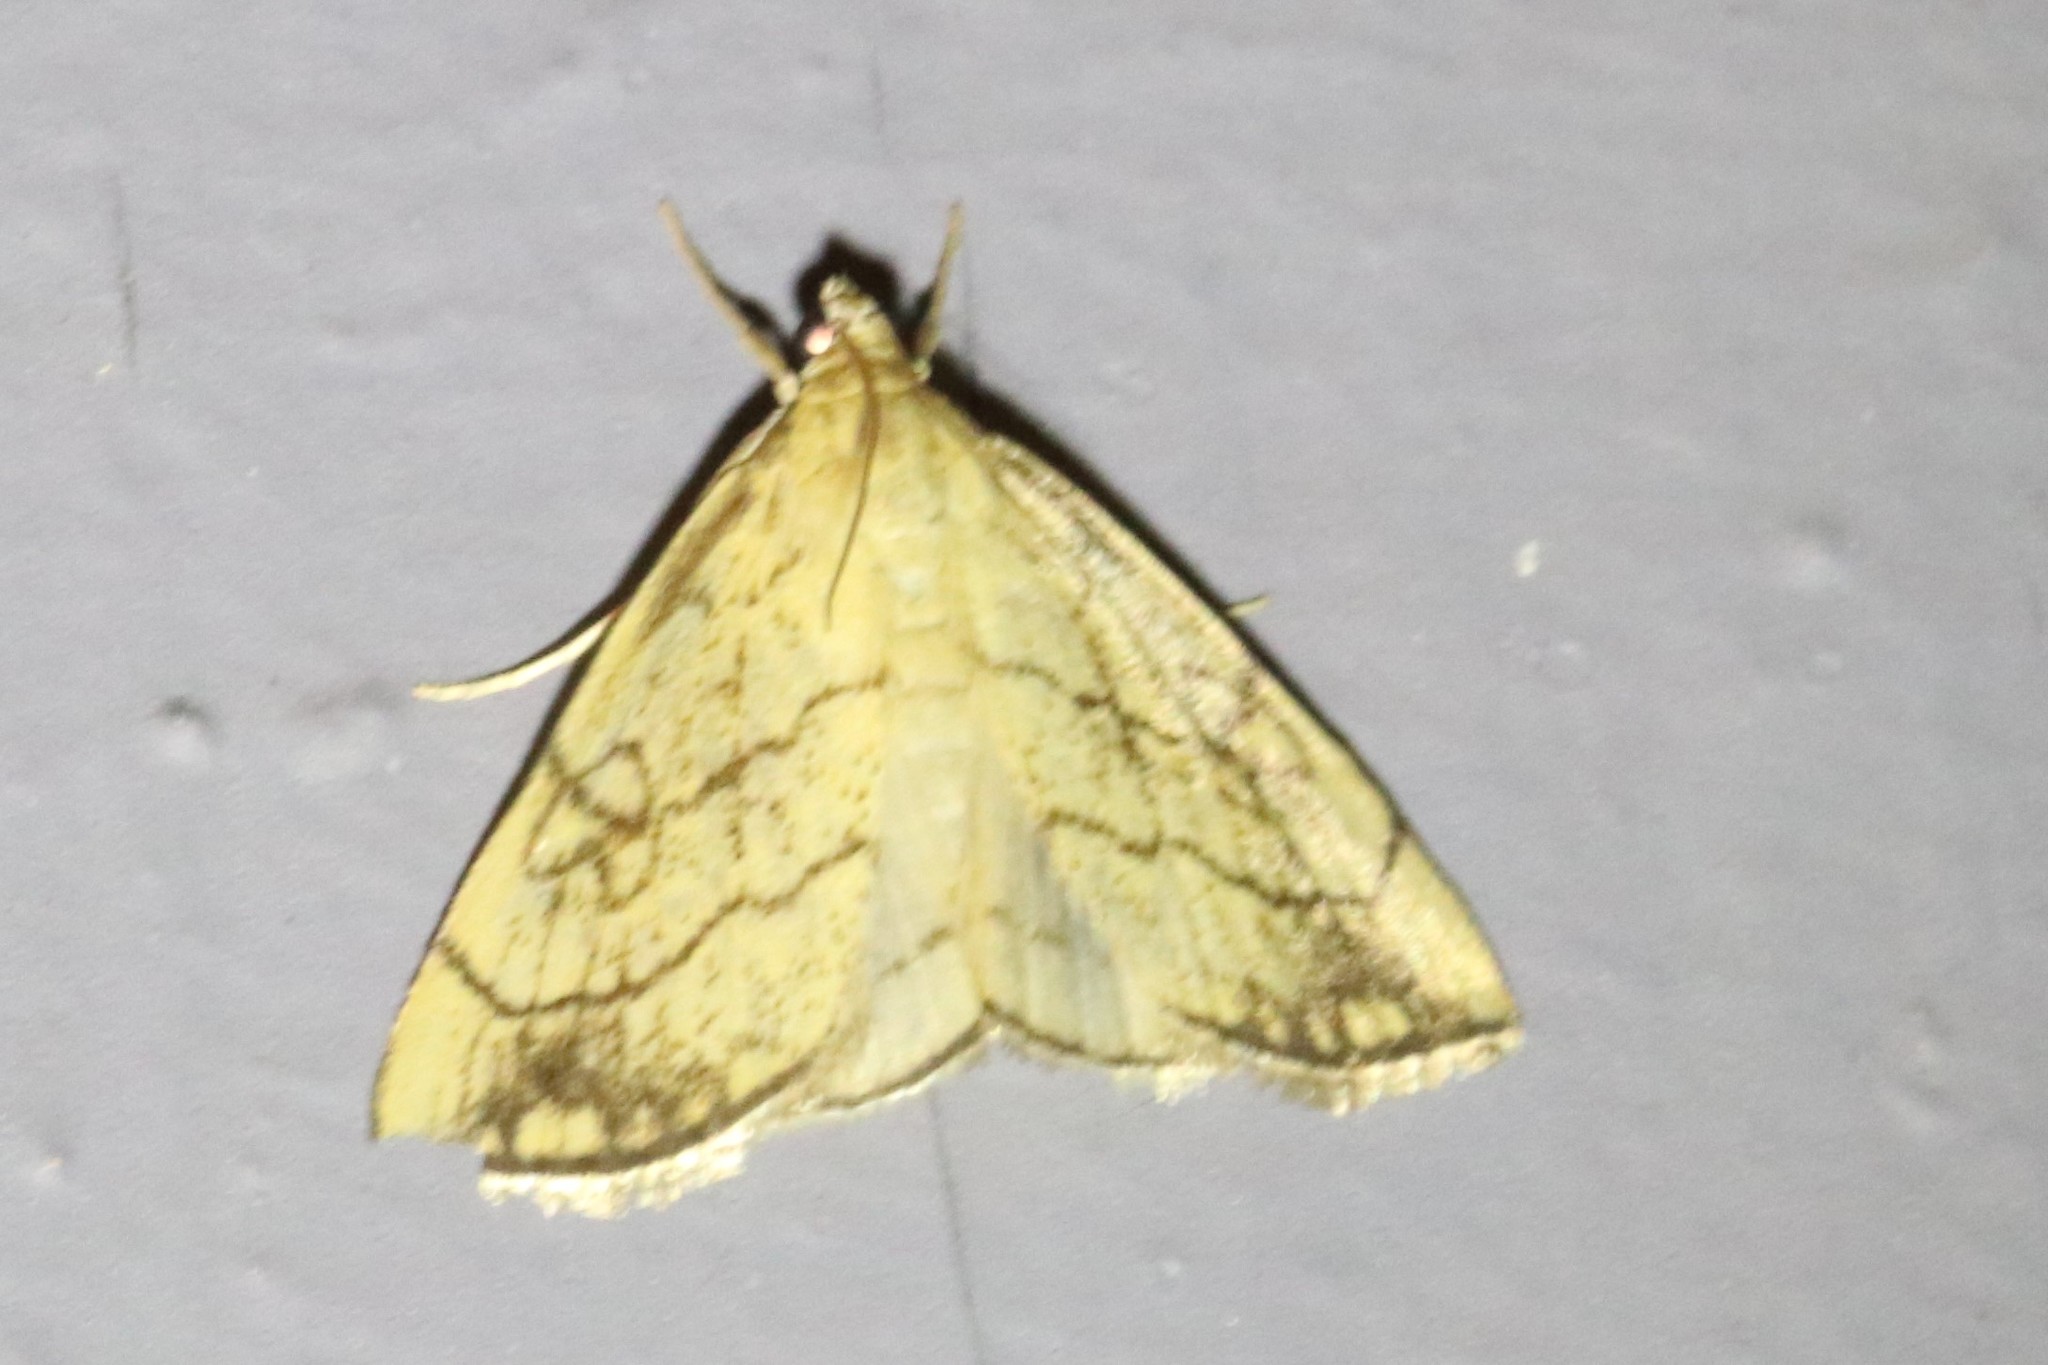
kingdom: Animalia
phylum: Arthropoda
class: Insecta
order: Lepidoptera
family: Crambidae
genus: Evergestis
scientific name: Evergestis pallidata
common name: Chequered pearl
